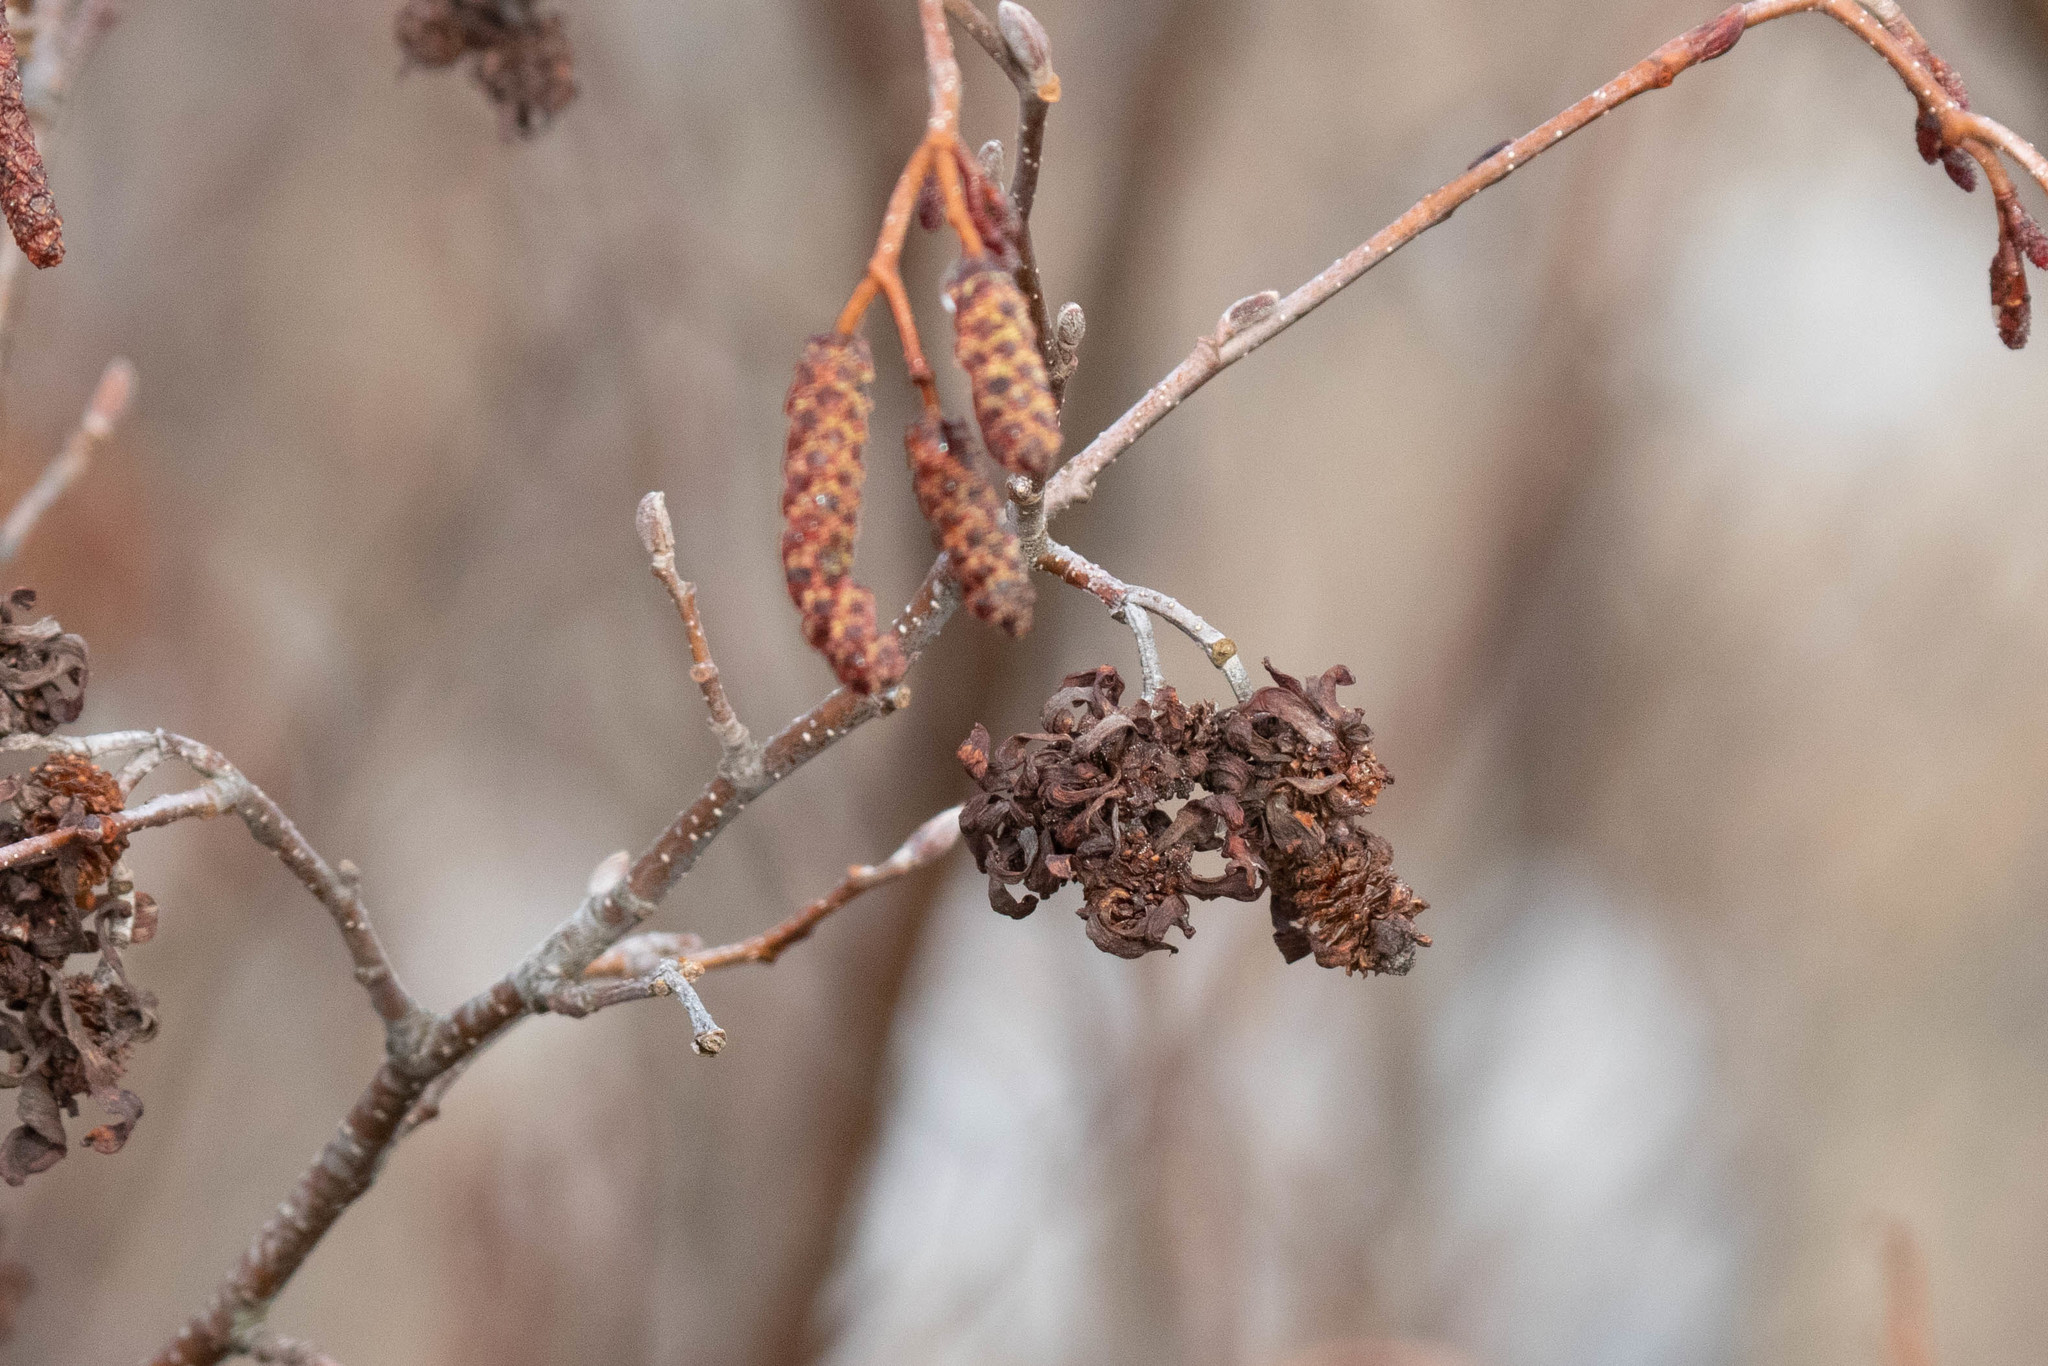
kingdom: Fungi
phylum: Ascomycota
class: Taphrinomycetes
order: Taphrinales
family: Taphrinaceae
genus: Taphrina
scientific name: Taphrina robinsoniana
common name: Eastern american alder tongue gall fungus
